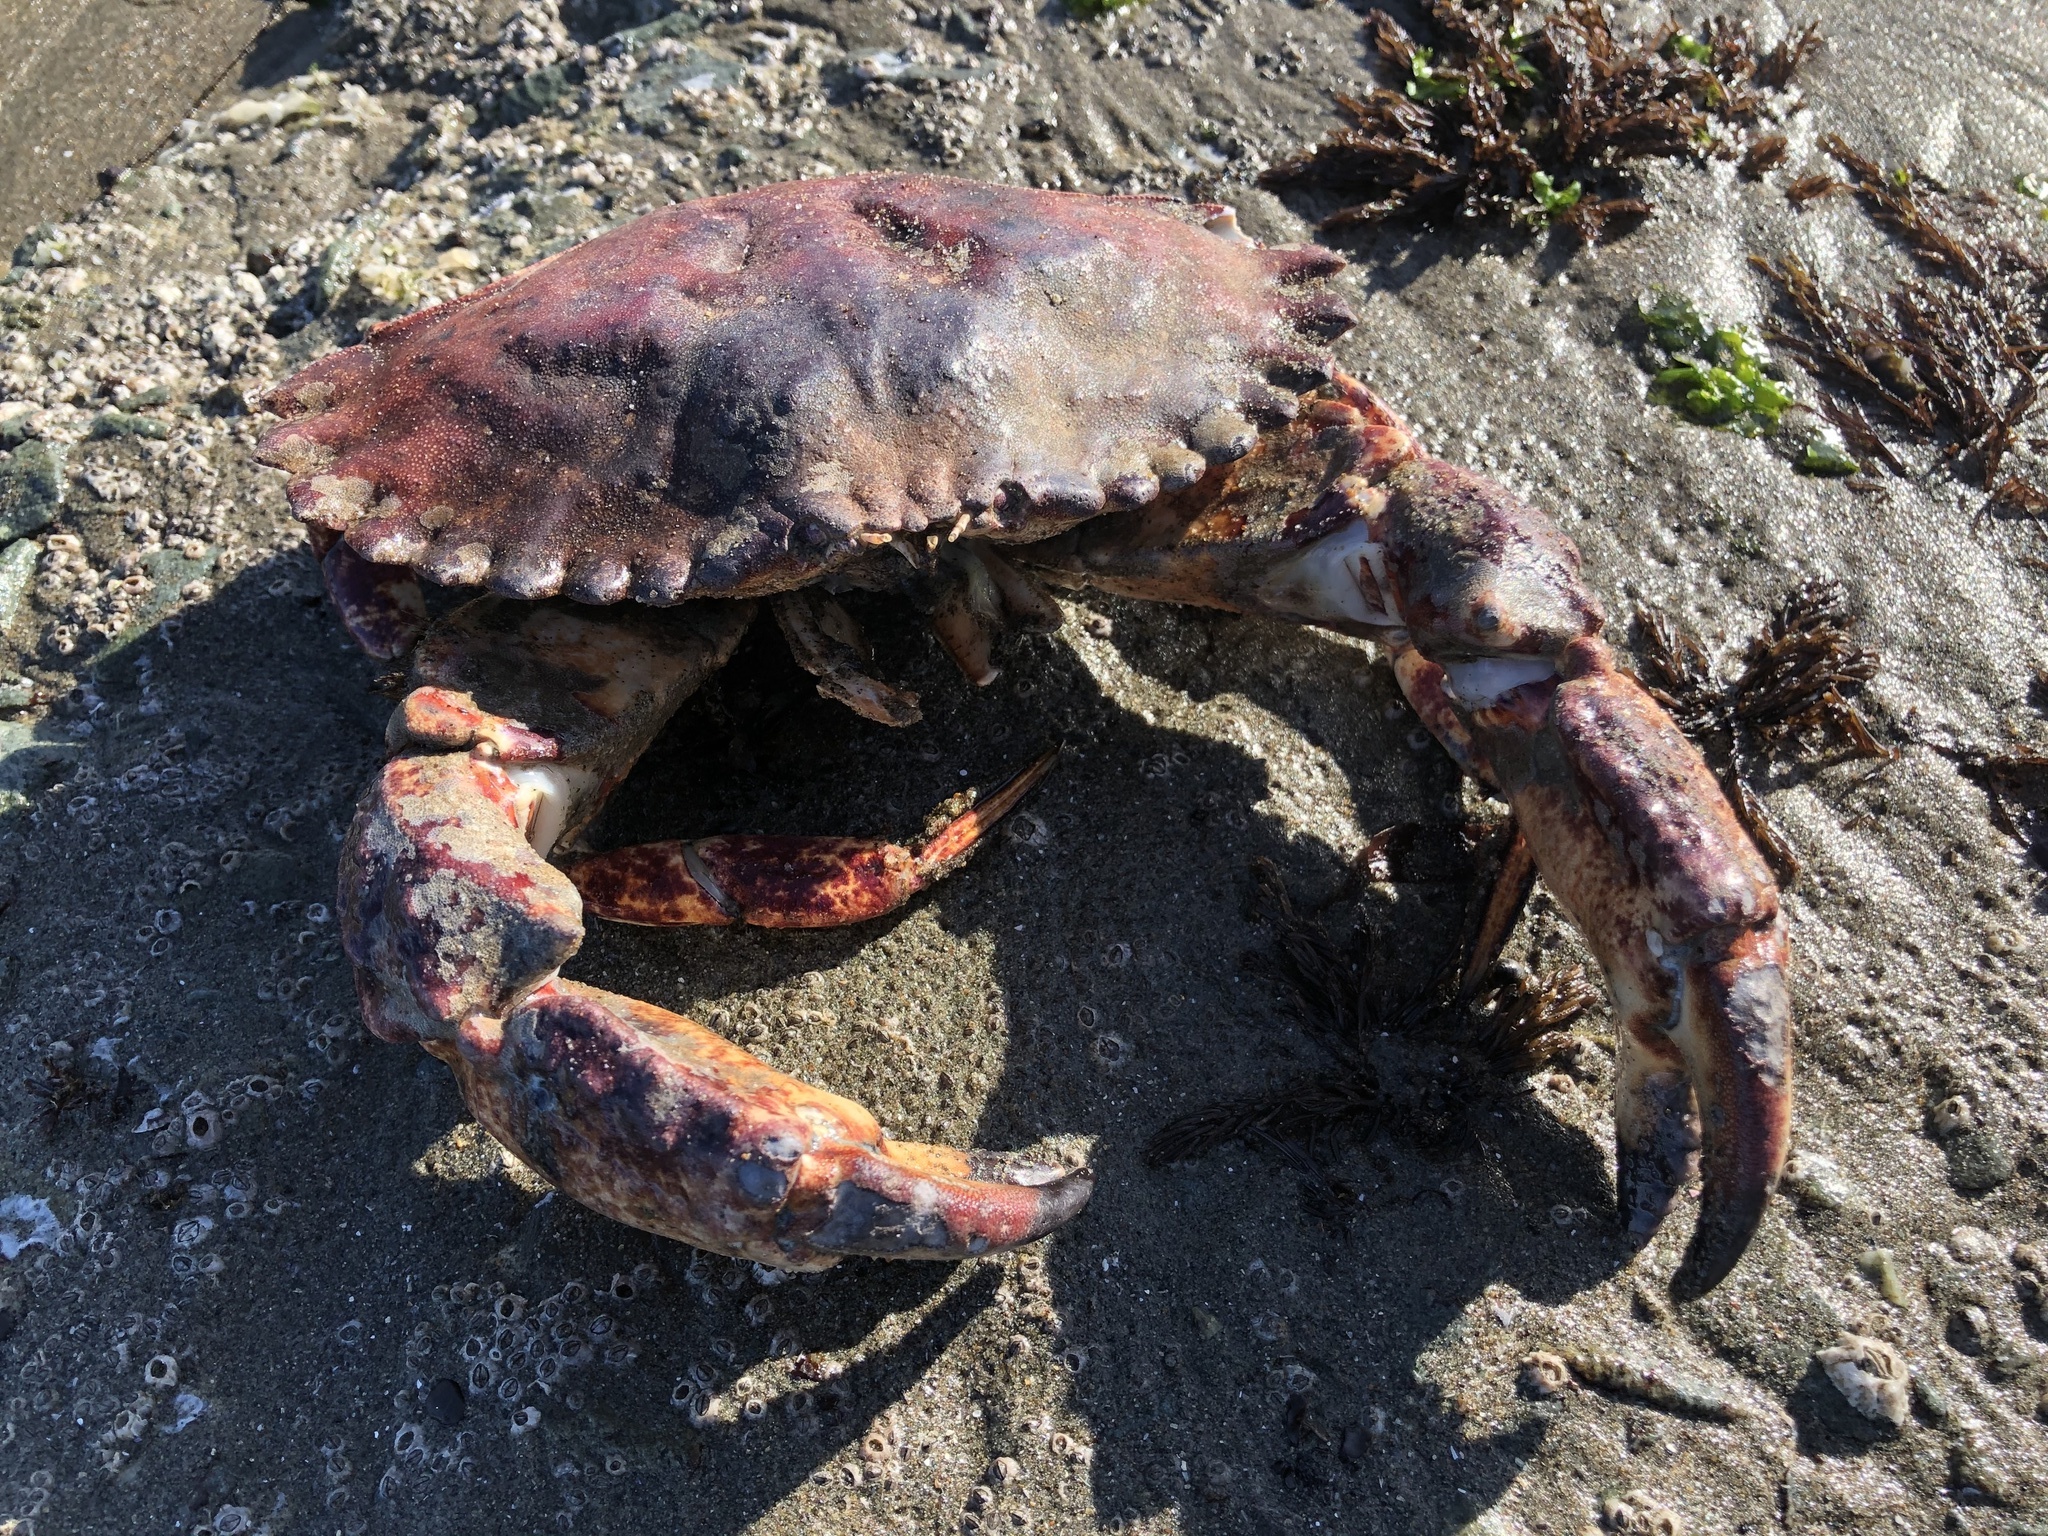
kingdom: Animalia
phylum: Arthropoda
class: Malacostraca
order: Decapoda
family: Cancridae
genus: Cancer
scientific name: Cancer productus
